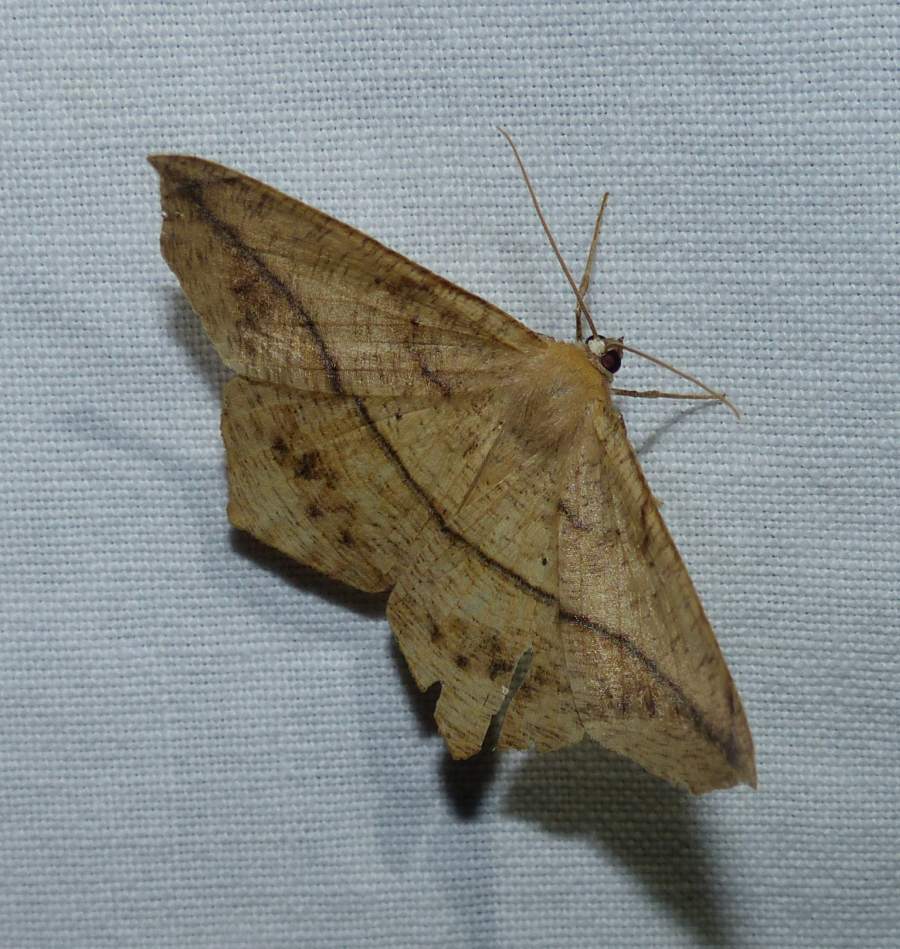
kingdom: Animalia
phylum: Arthropoda
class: Insecta
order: Lepidoptera
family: Geometridae
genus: Prochoerodes
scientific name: Prochoerodes lineola
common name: Large maple spanworm
